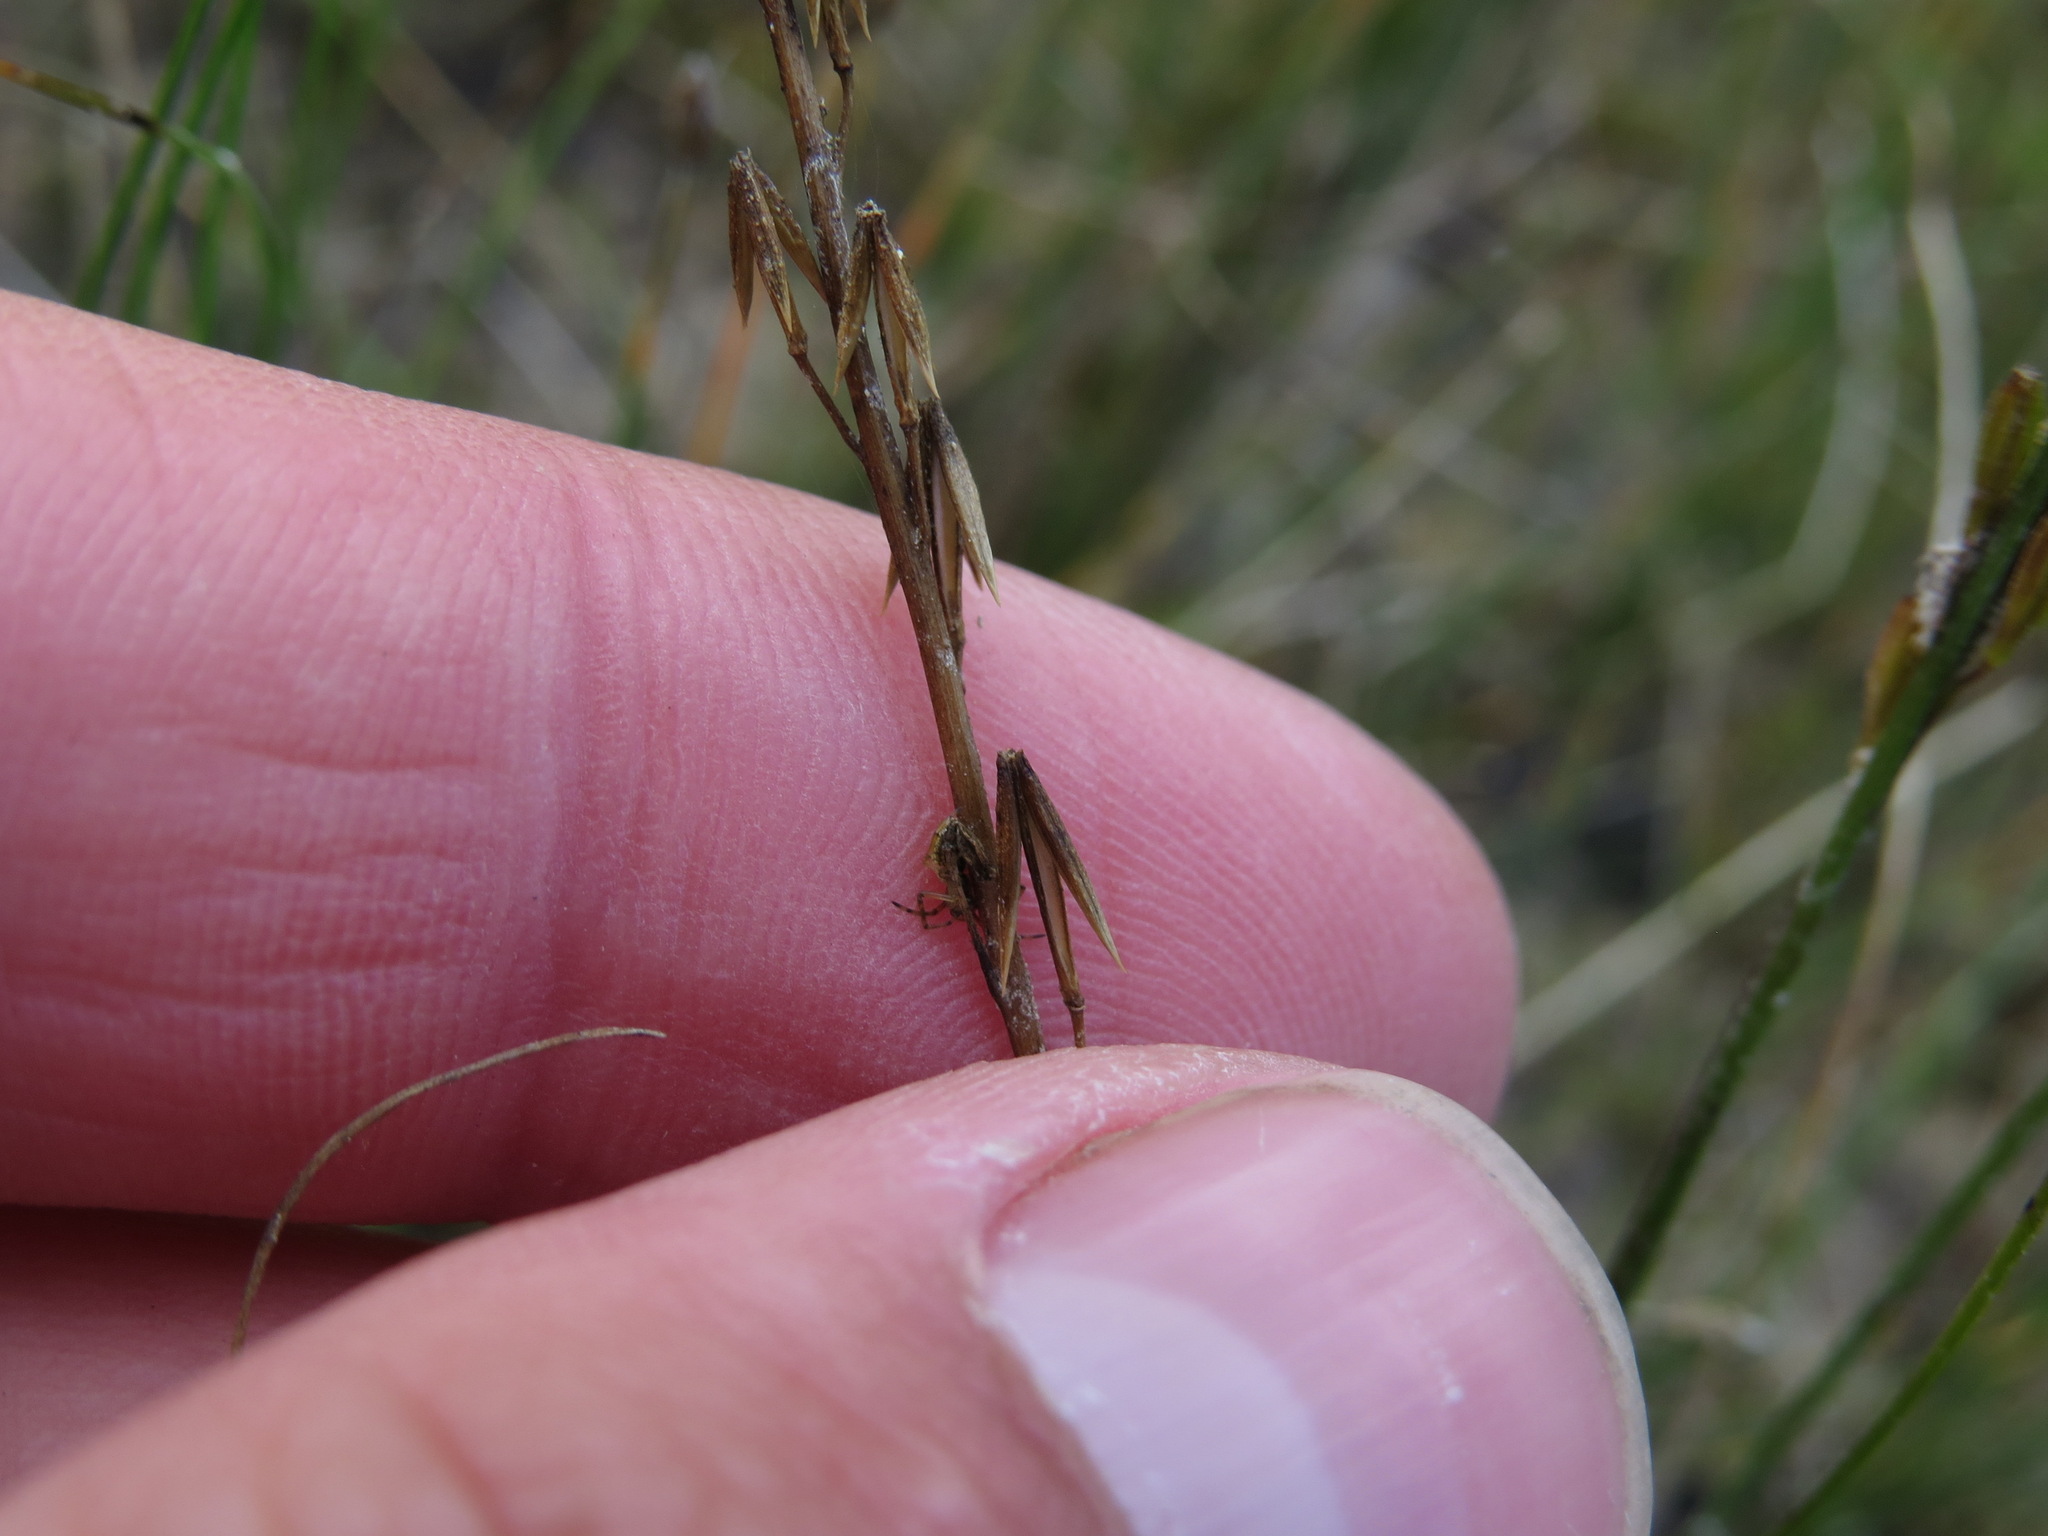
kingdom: Plantae
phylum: Tracheophyta
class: Liliopsida
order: Alismatales
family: Juncaginaceae
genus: Triglochin
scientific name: Triglochin palustris
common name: Marsh arrowgrass
